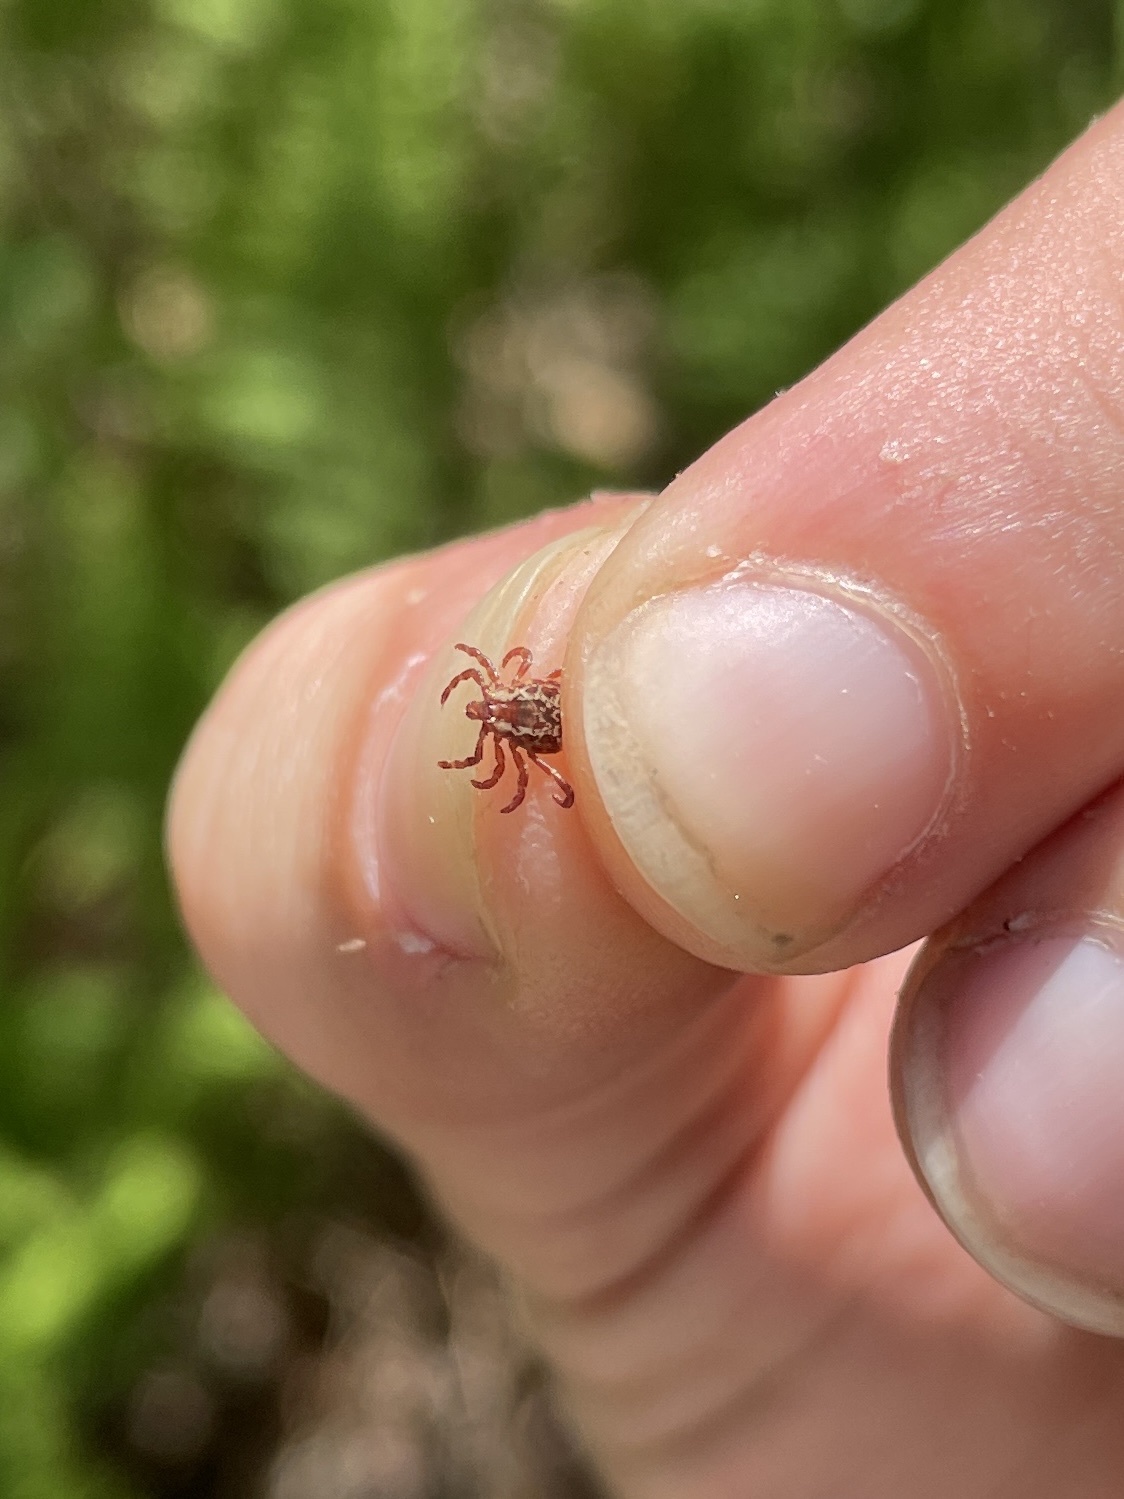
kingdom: Animalia
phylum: Arthropoda
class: Arachnida
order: Ixodida
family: Ixodidae
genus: Dermacentor
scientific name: Dermacentor variabilis
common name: American dog tick
